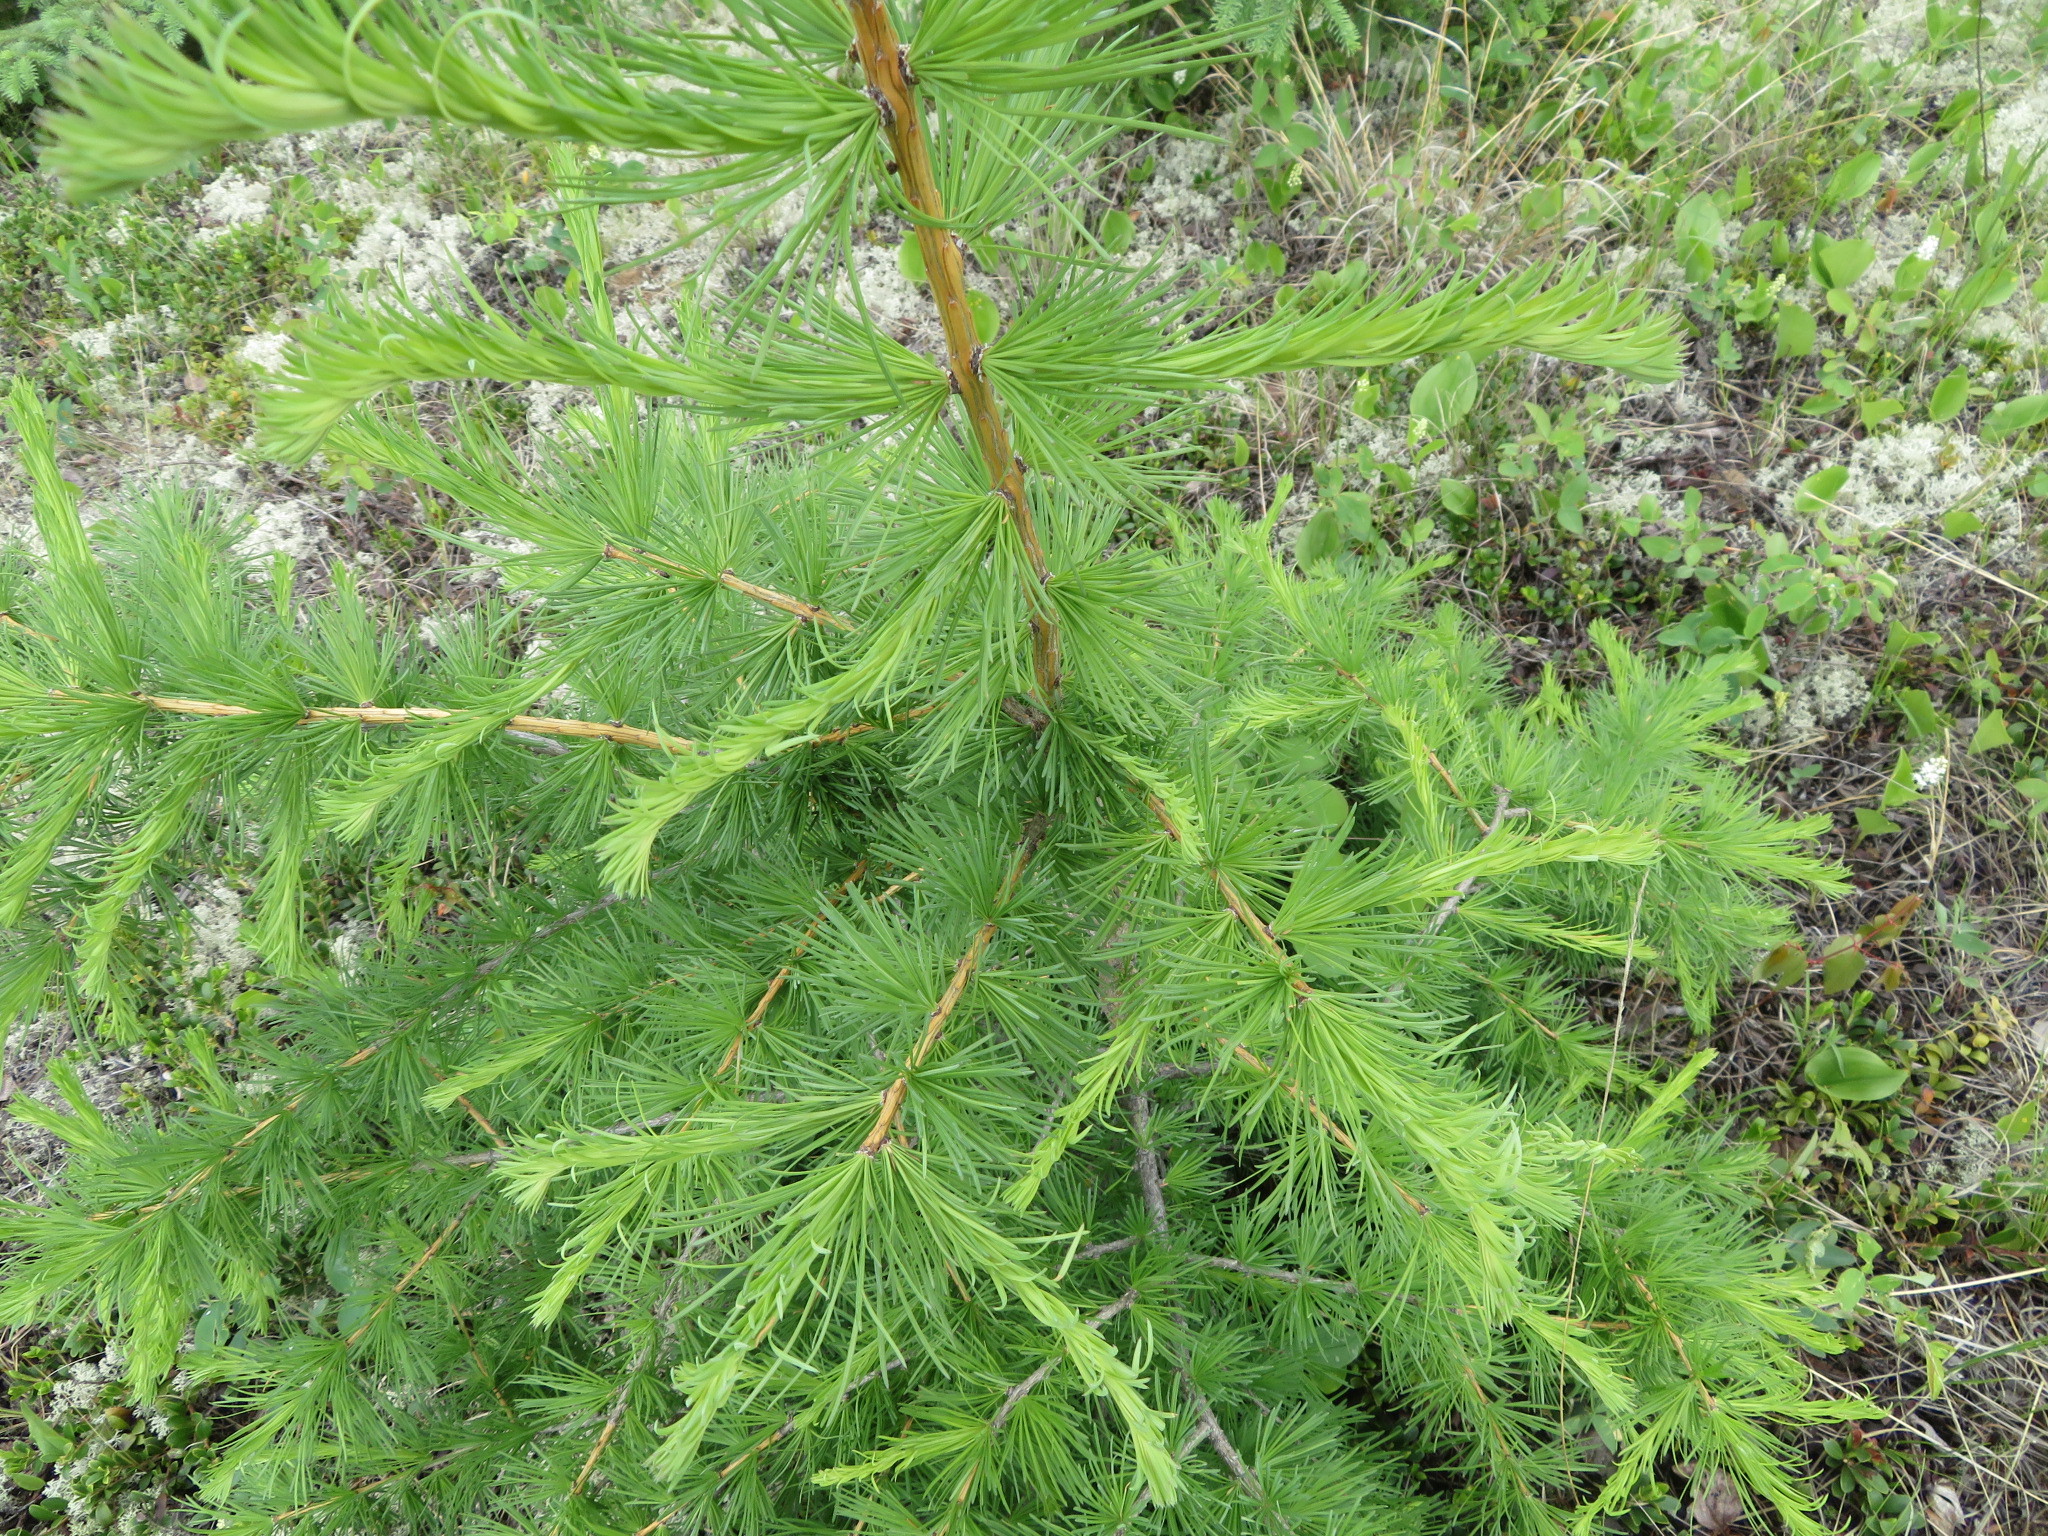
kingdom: Plantae
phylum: Tracheophyta
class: Pinopsida
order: Pinales
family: Pinaceae
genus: Larix
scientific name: Larix laricina
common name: American larch
